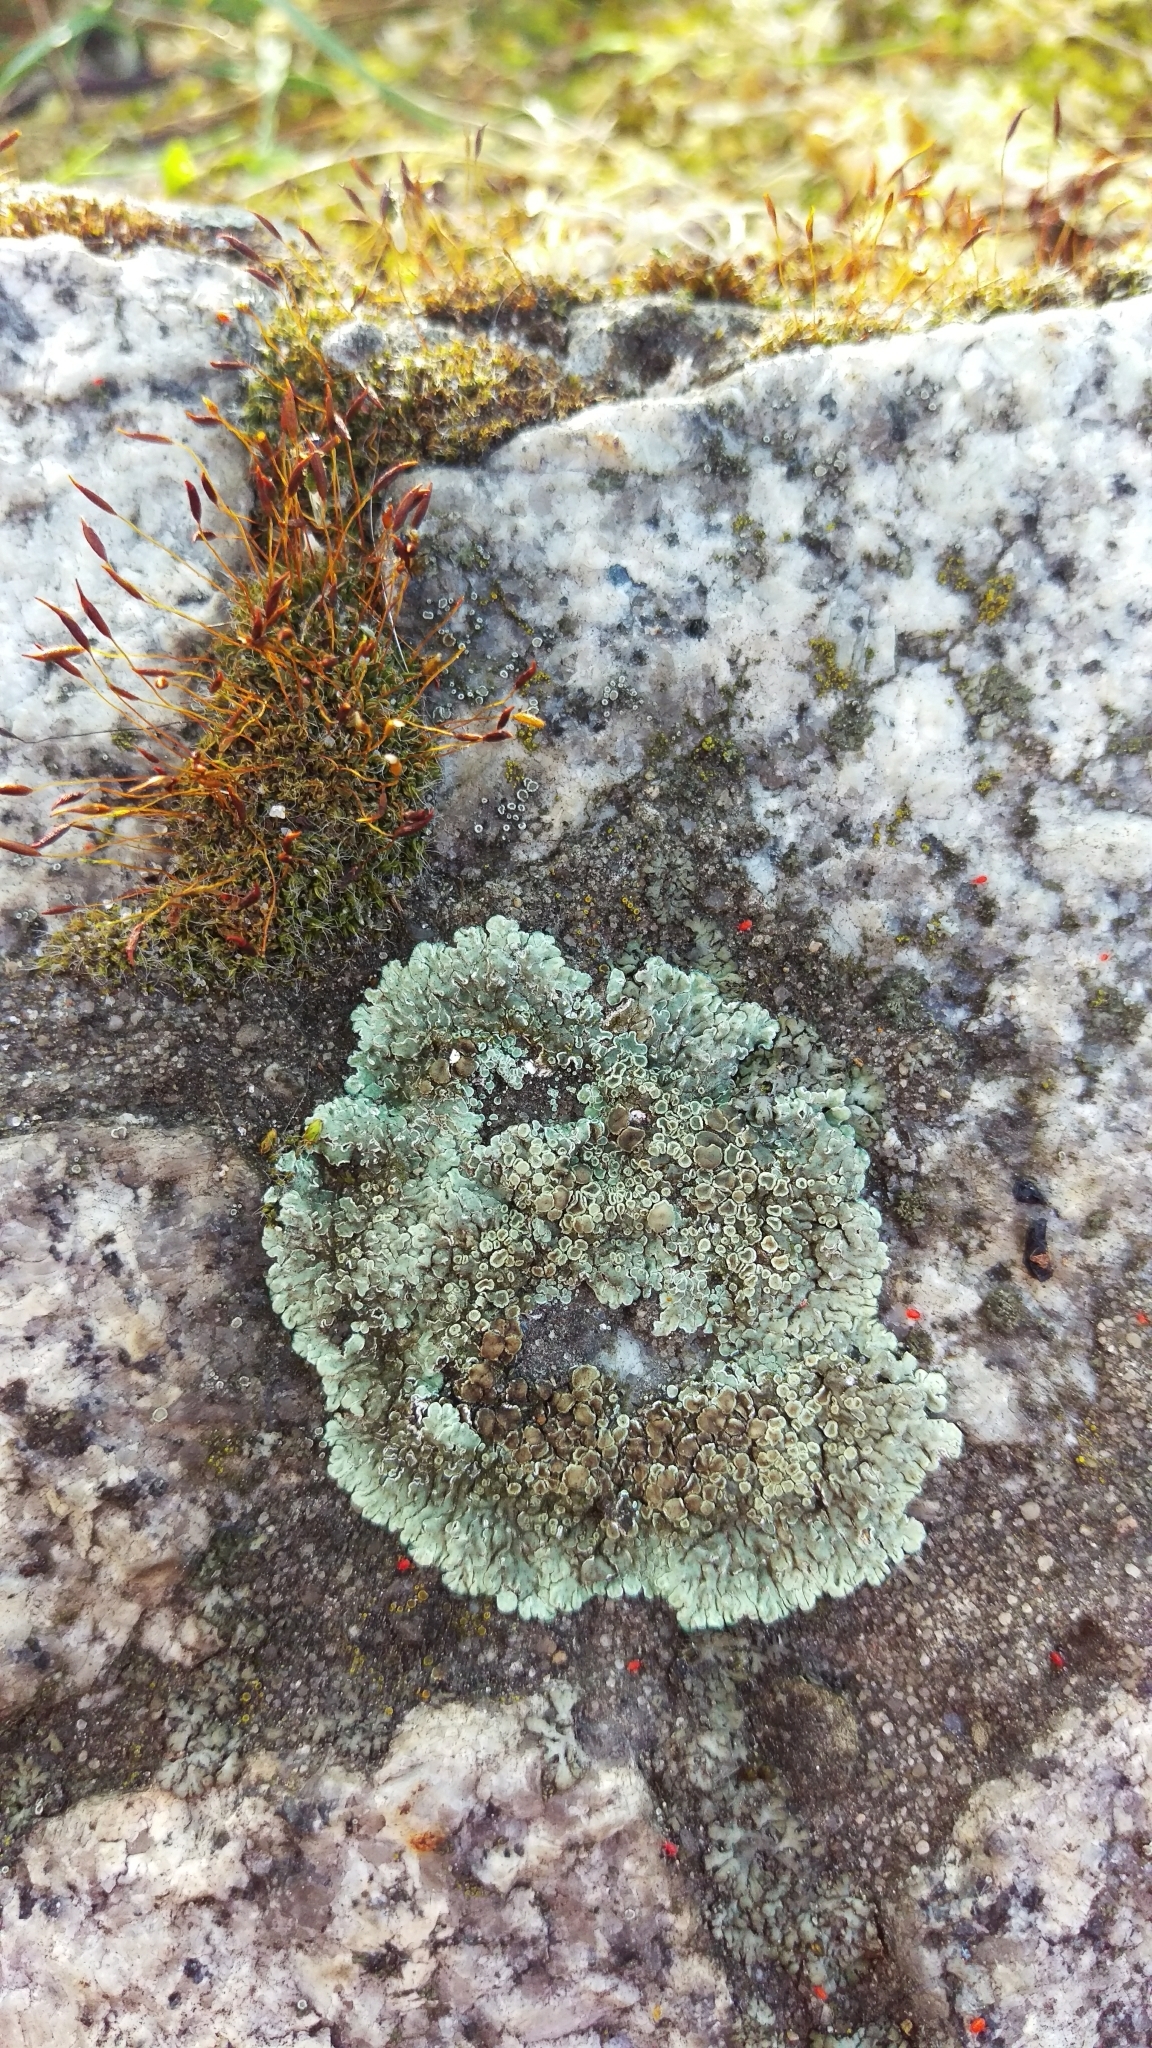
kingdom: Fungi
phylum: Ascomycota
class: Lecanoromycetes
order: Lecanorales
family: Lecanoraceae
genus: Protoparmeliopsis
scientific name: Protoparmeliopsis muralis
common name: Stonewall rim lichen
